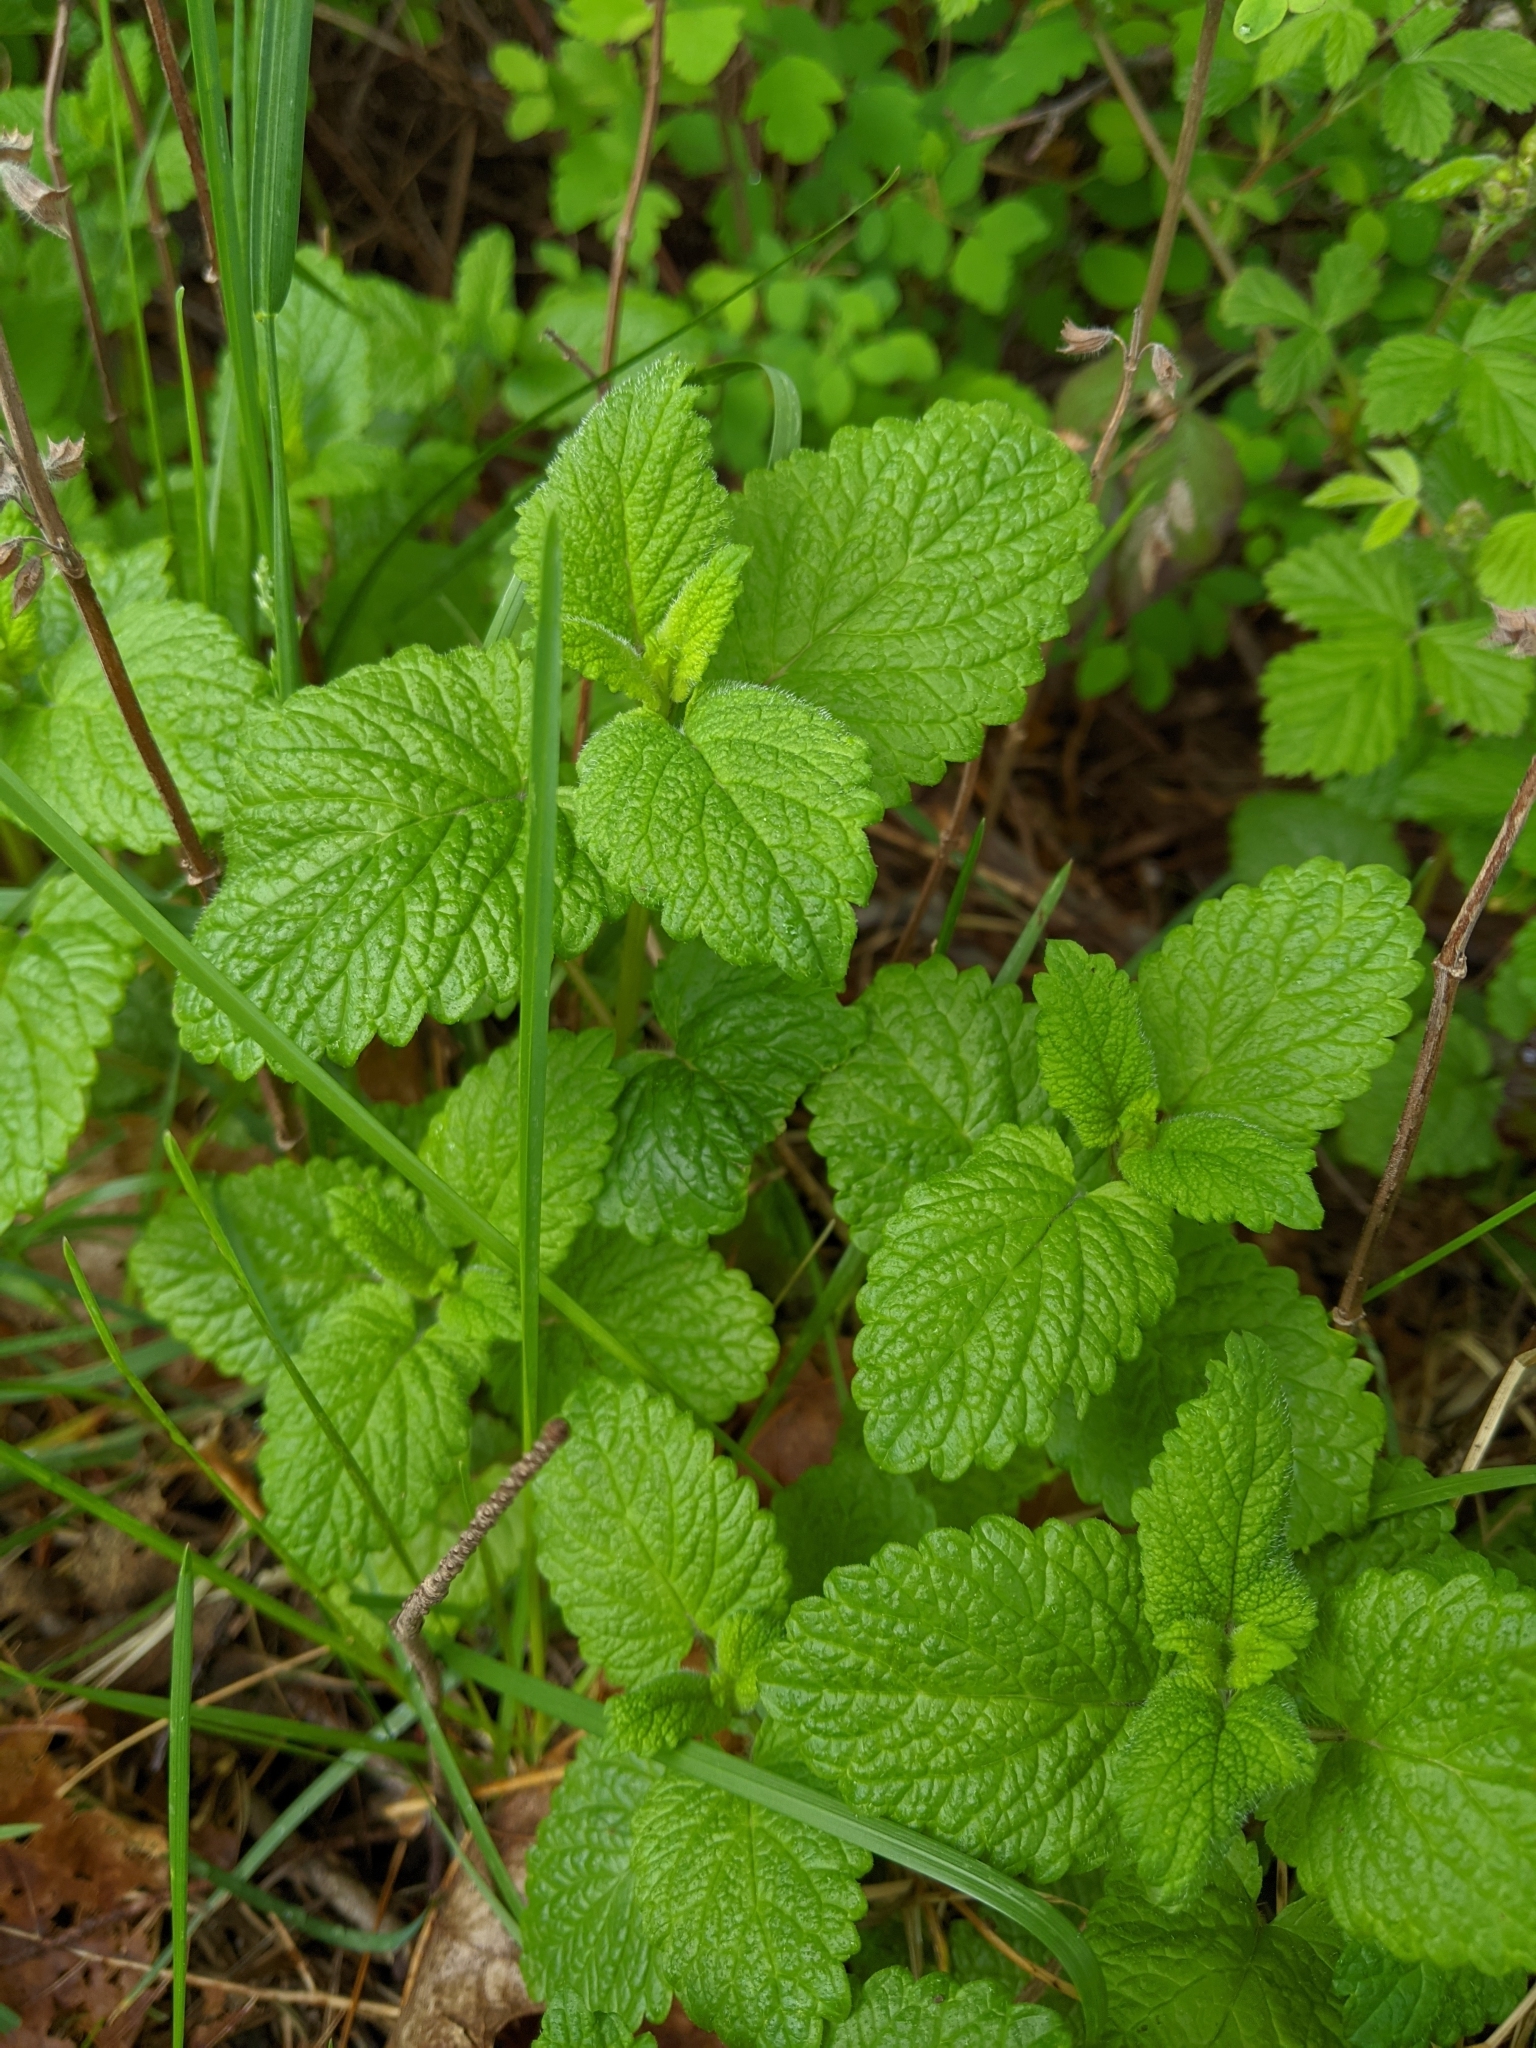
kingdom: Plantae
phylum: Tracheophyta
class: Magnoliopsida
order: Lamiales
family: Lamiaceae
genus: Melissa
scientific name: Melissa officinalis
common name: Balm
